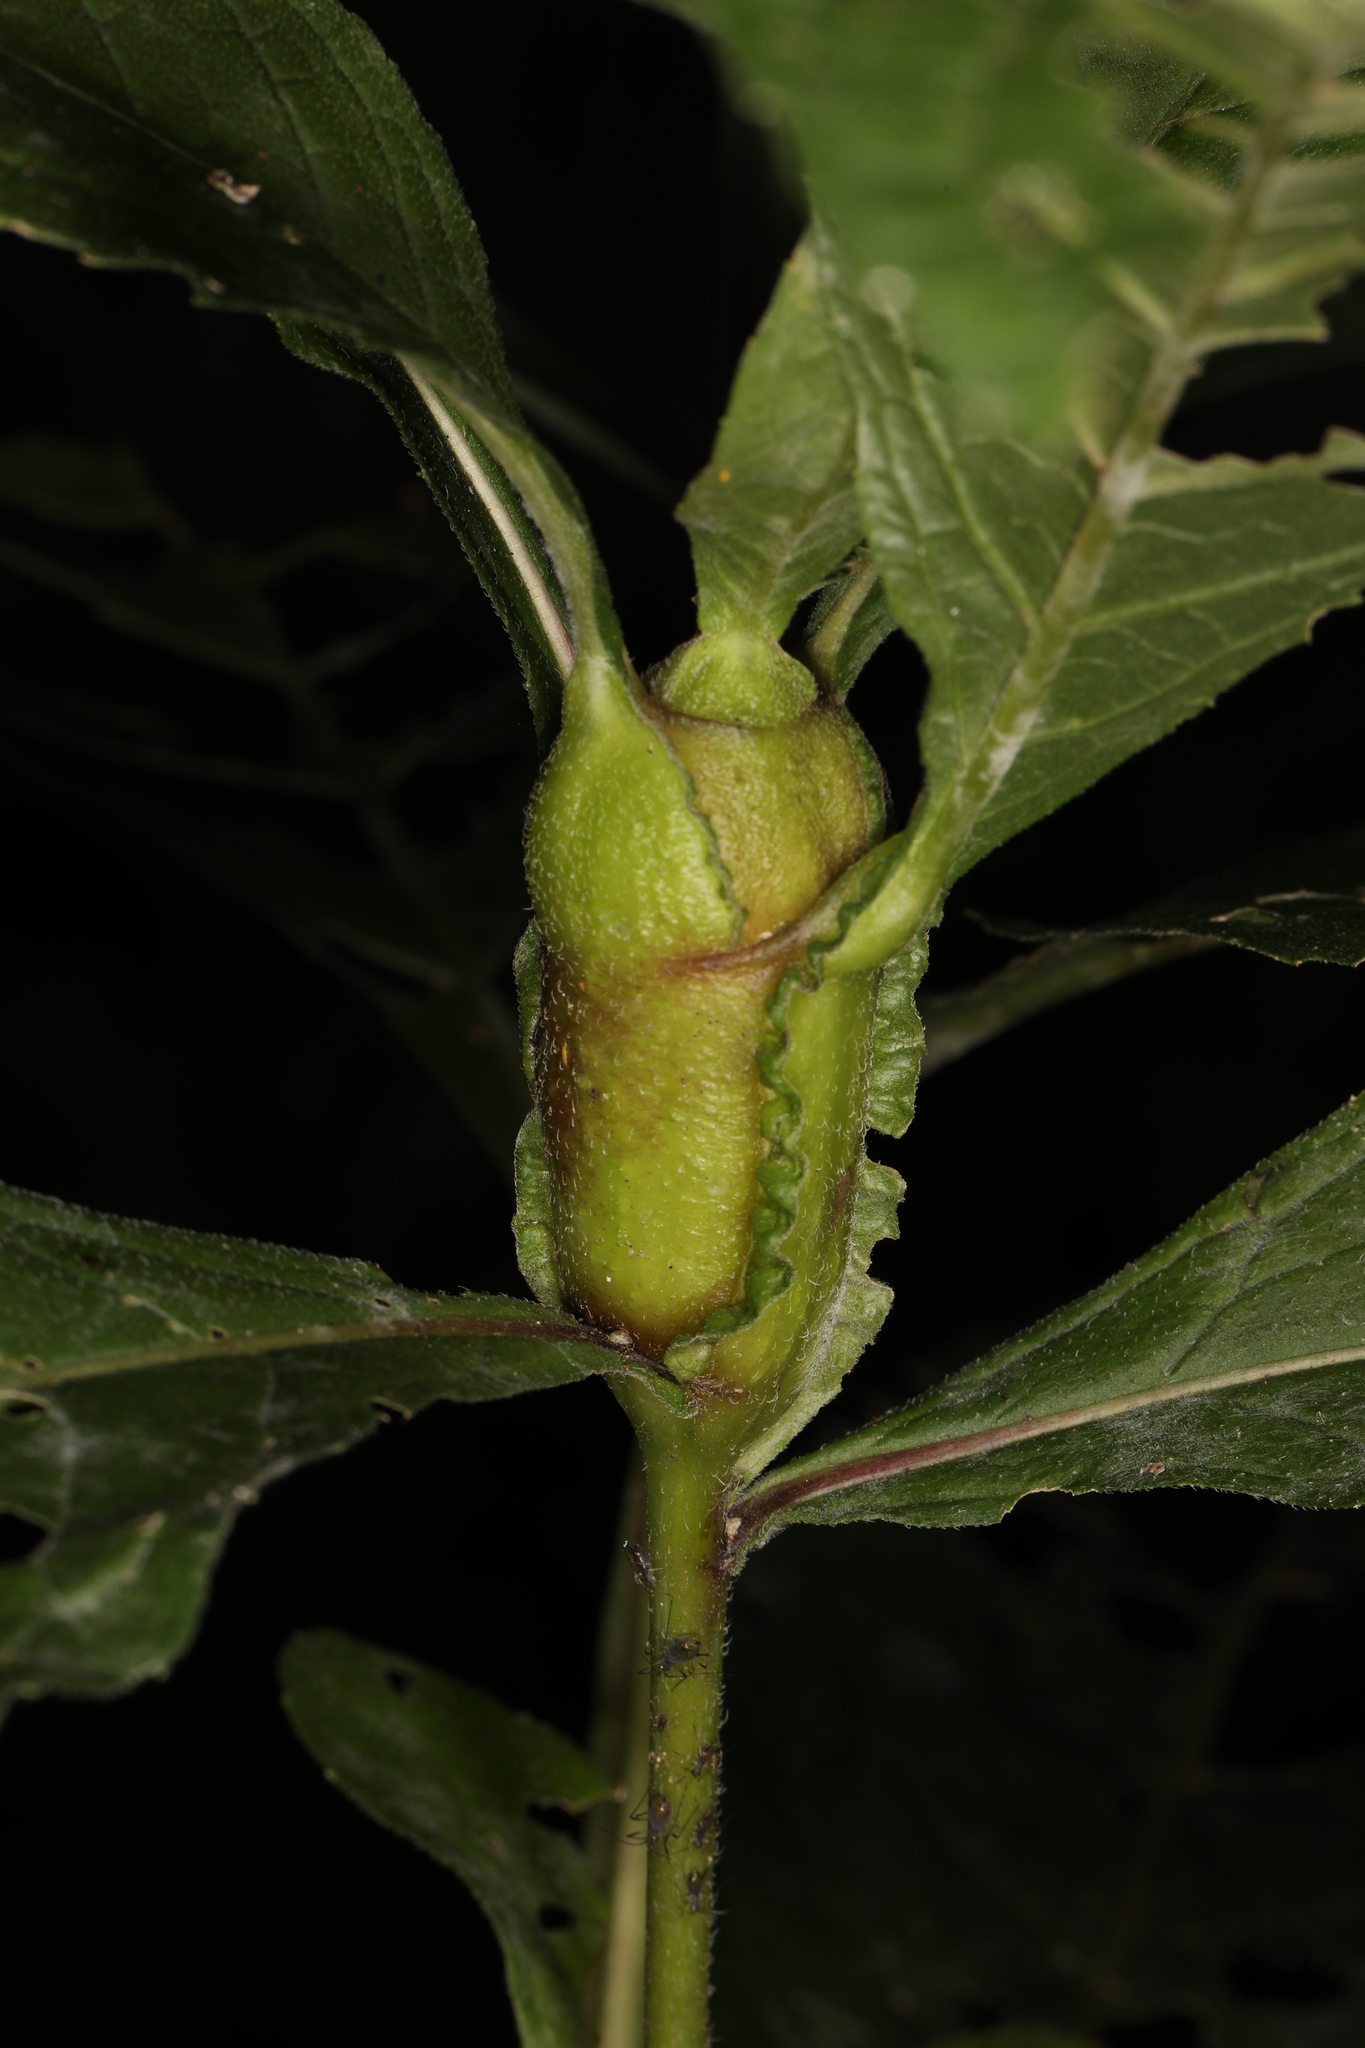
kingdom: Animalia
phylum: Arthropoda
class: Insecta
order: Diptera
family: Cecidomyiidae
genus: Neolasioptera
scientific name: Neolasioptera verbesinae
